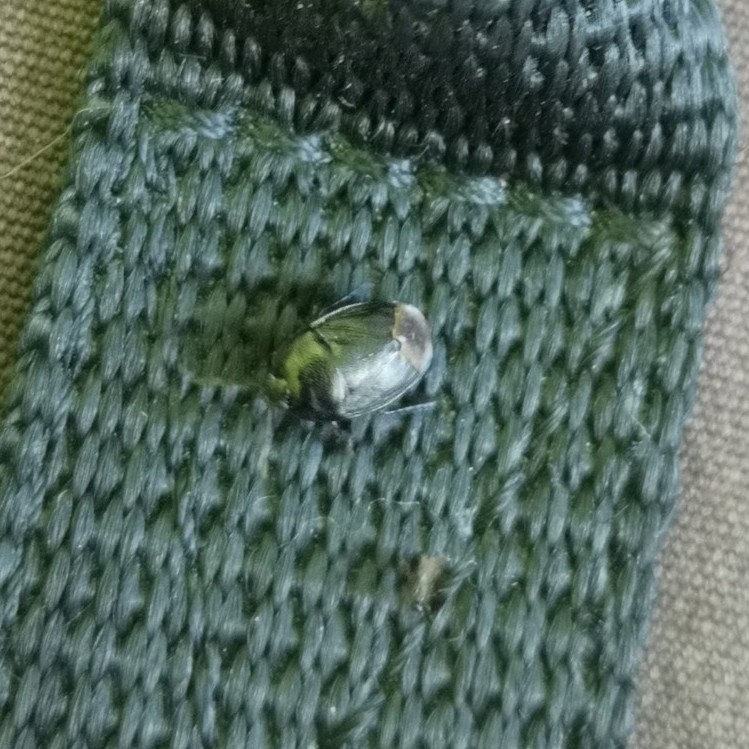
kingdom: Animalia
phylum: Arthropoda
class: Insecta
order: Hemiptera
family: Cydnidae
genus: Sehirus
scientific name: Sehirus luctuosus
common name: Forget-me-not shieldbug
